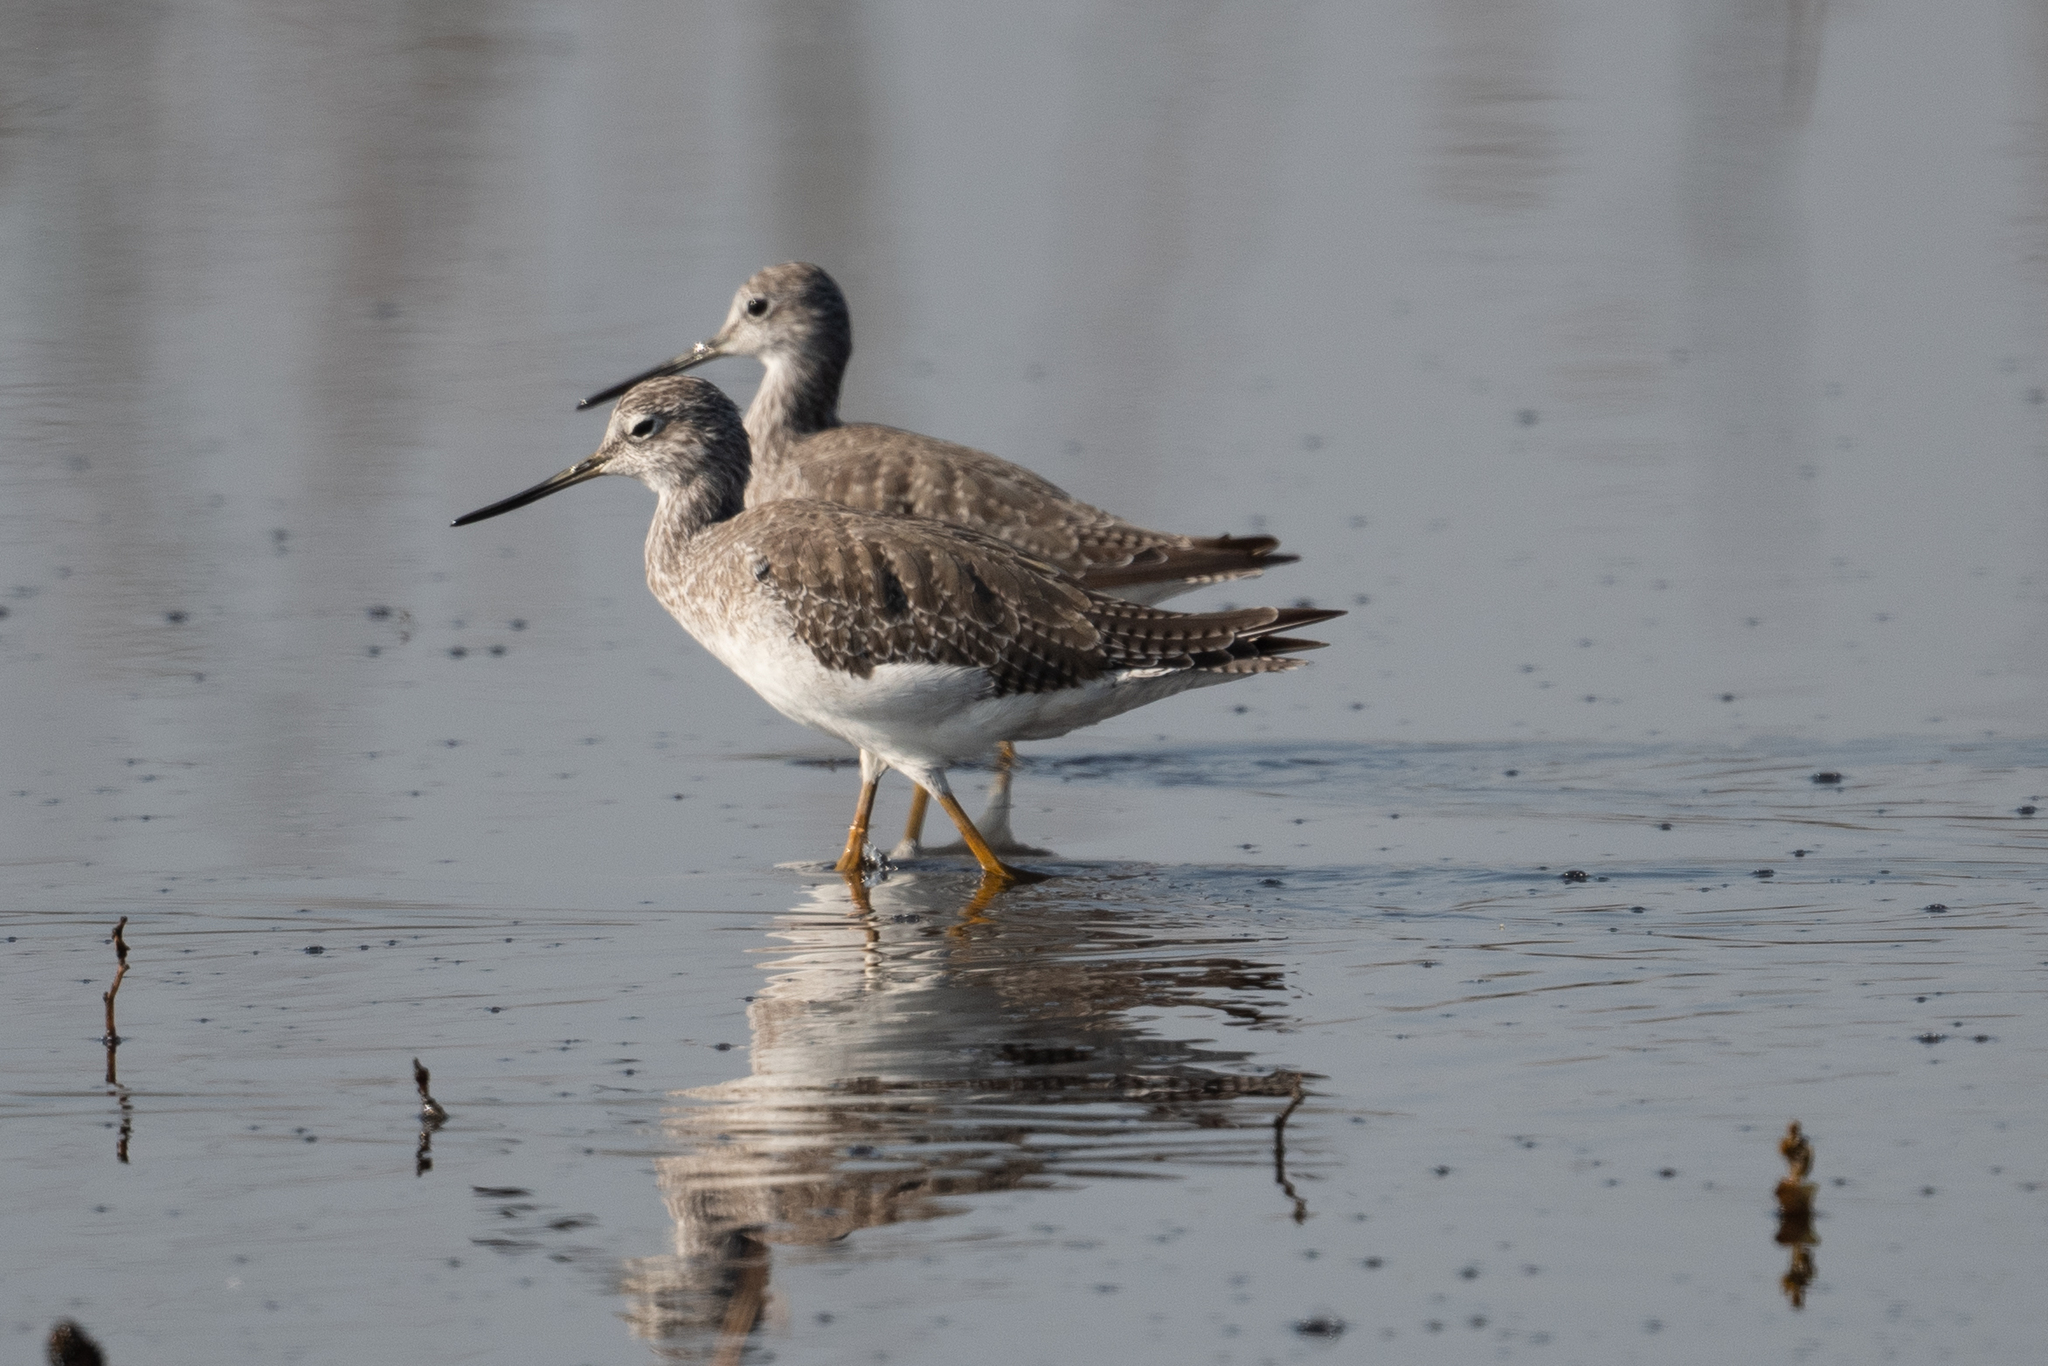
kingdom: Animalia
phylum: Chordata
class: Aves
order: Charadriiformes
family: Scolopacidae
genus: Tringa
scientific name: Tringa melanoleuca
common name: Greater yellowlegs
